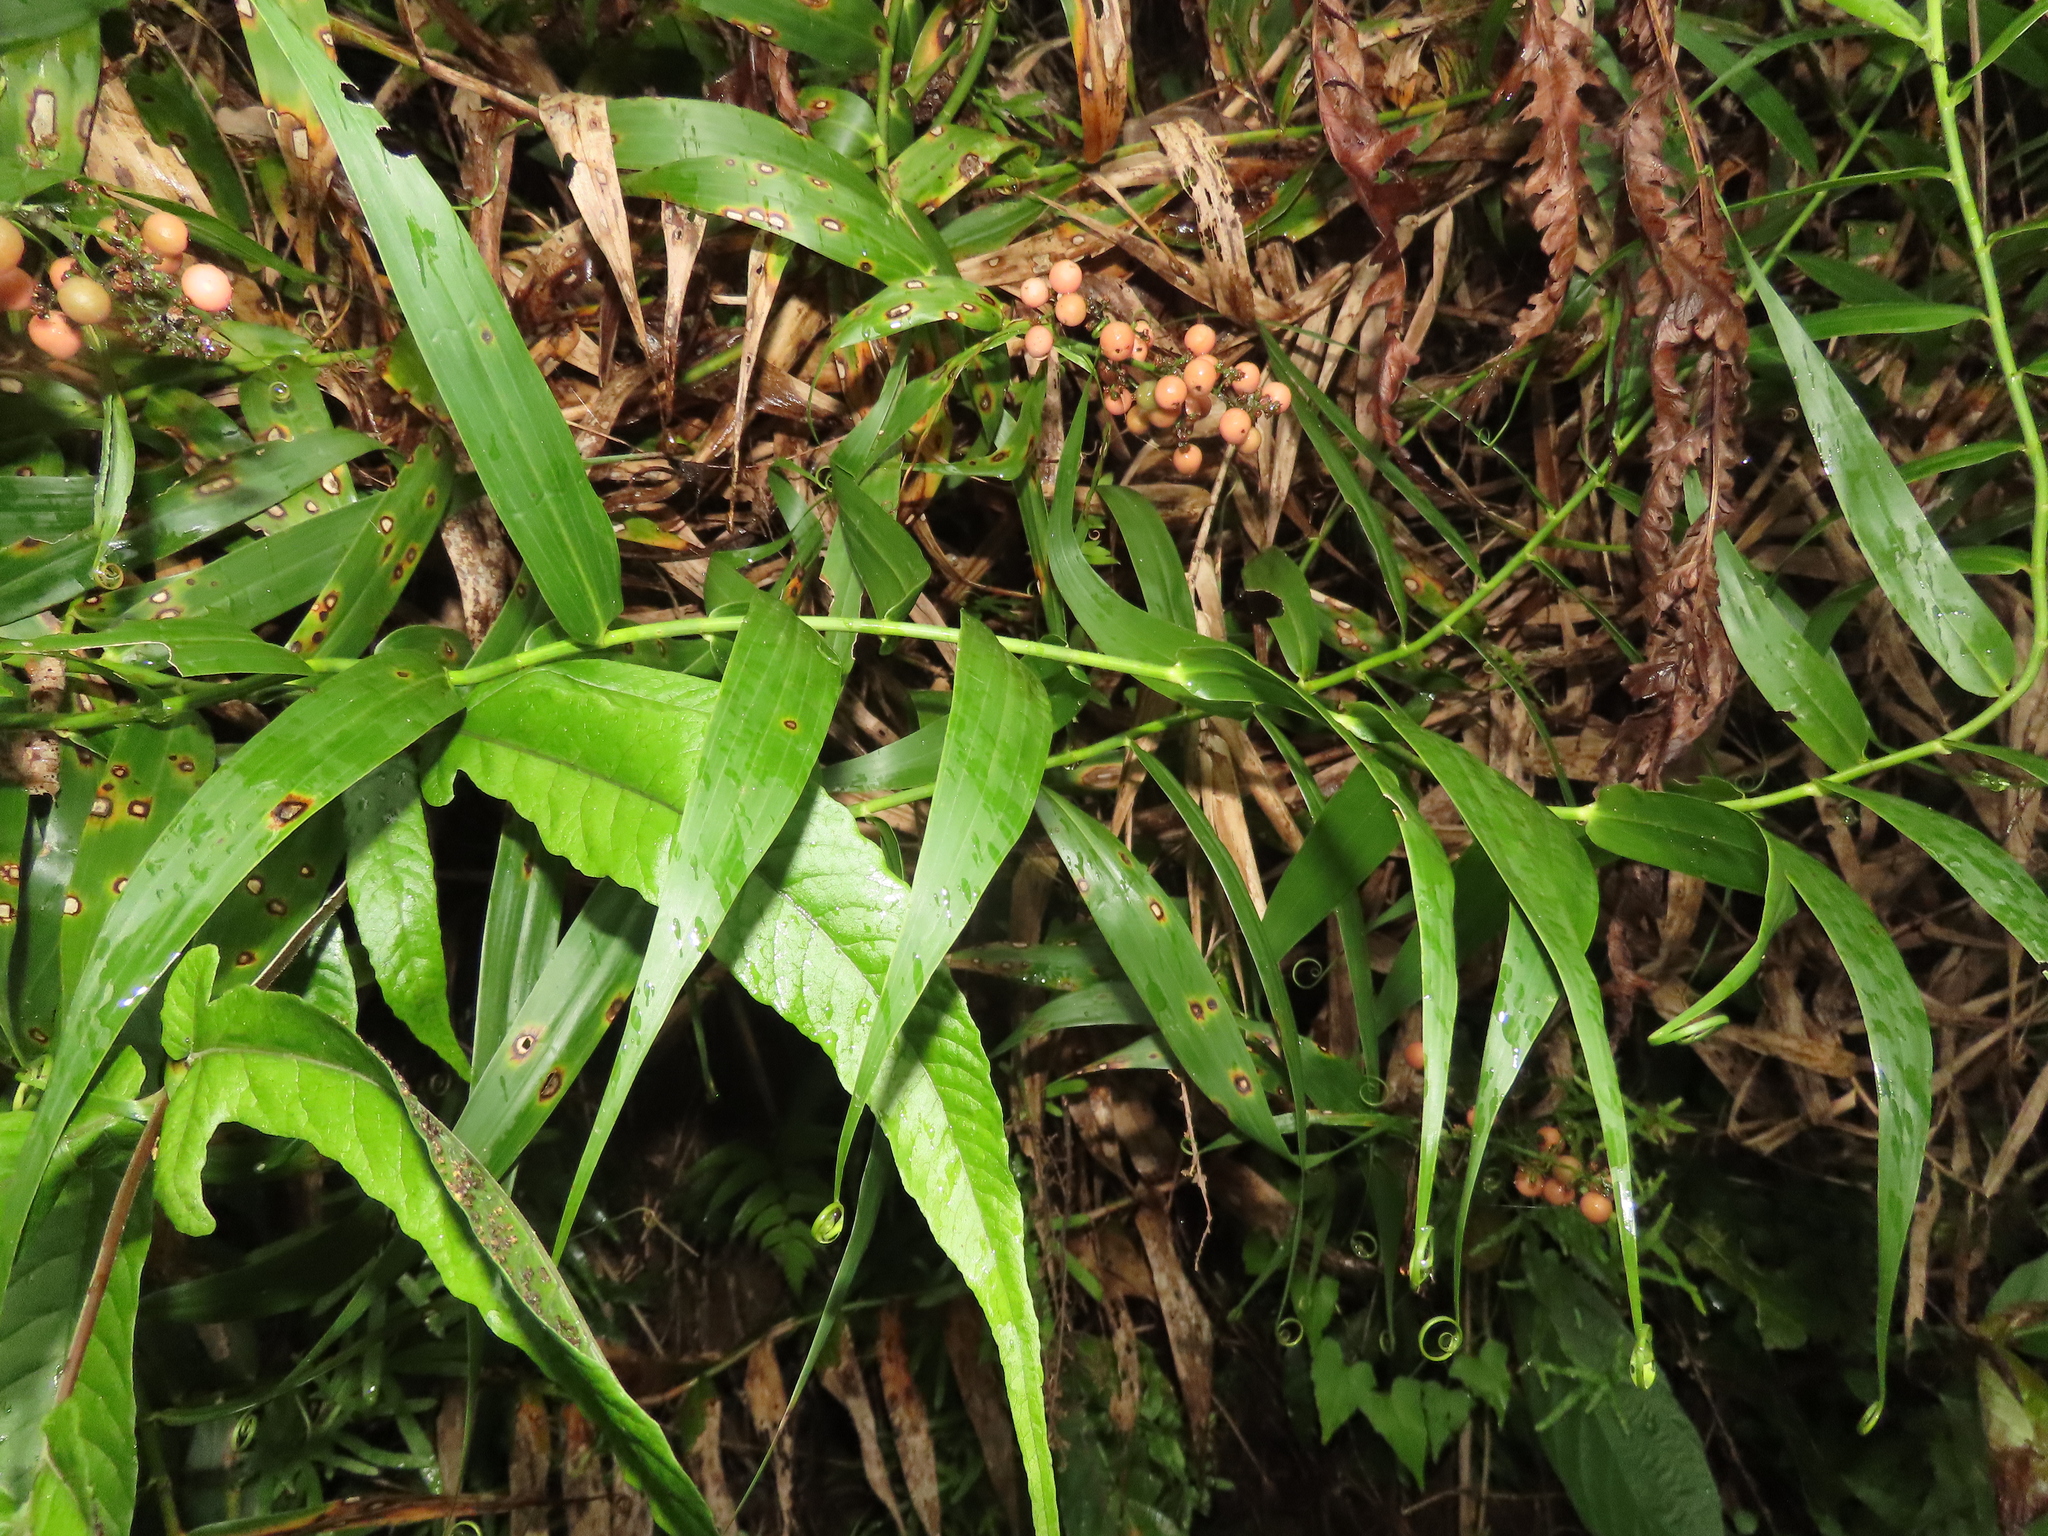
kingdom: Plantae
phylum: Tracheophyta
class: Liliopsida
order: Poales
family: Flagellariaceae
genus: Flagellaria
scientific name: Flagellaria indica
